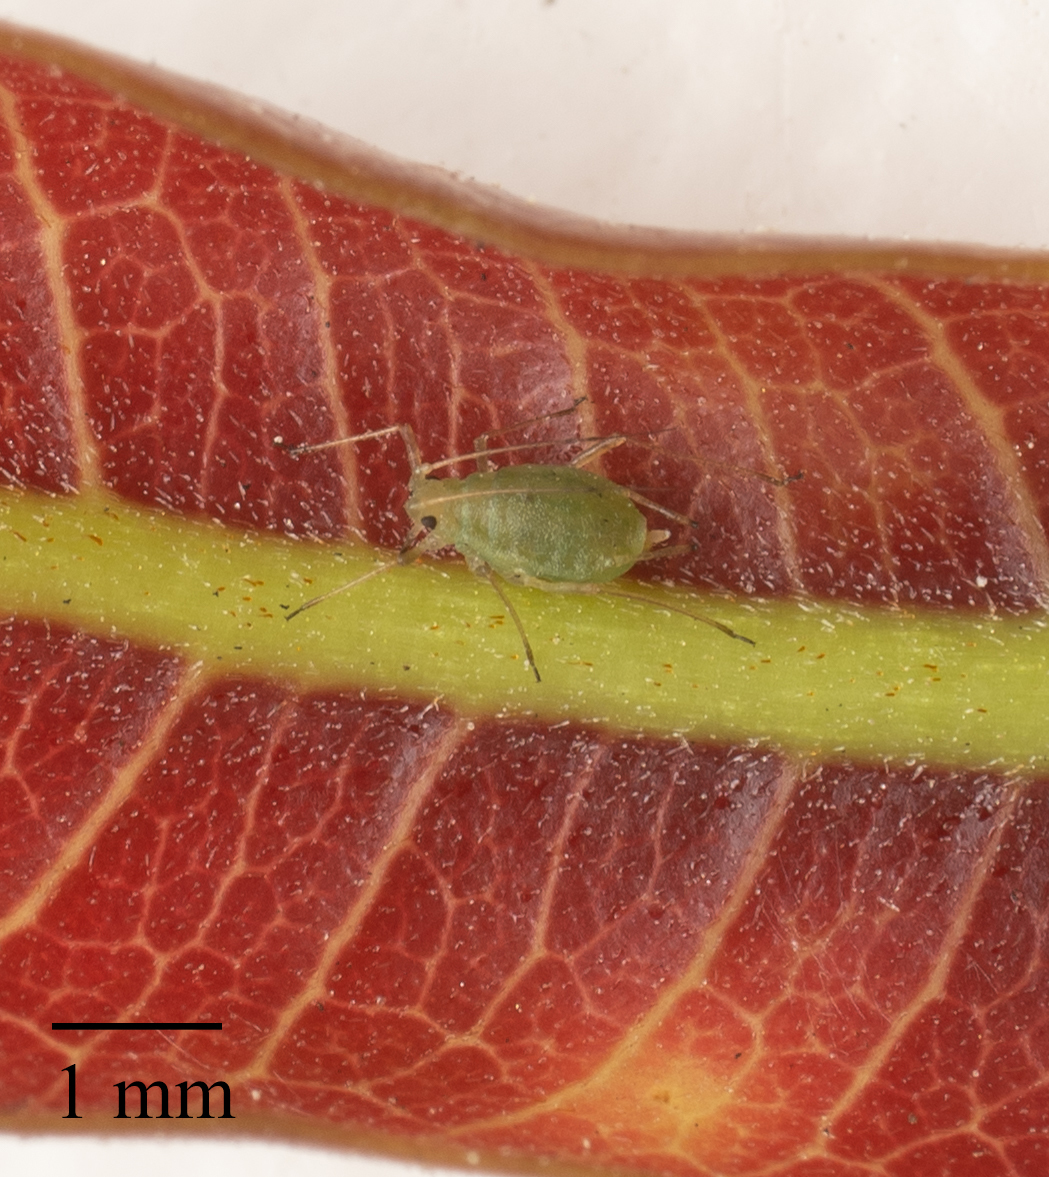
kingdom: Animalia
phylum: Arthropoda
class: Insecta
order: Hemiptera
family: Aphididae
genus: Myzus
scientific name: Myzus persicae
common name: Green peach aphid
